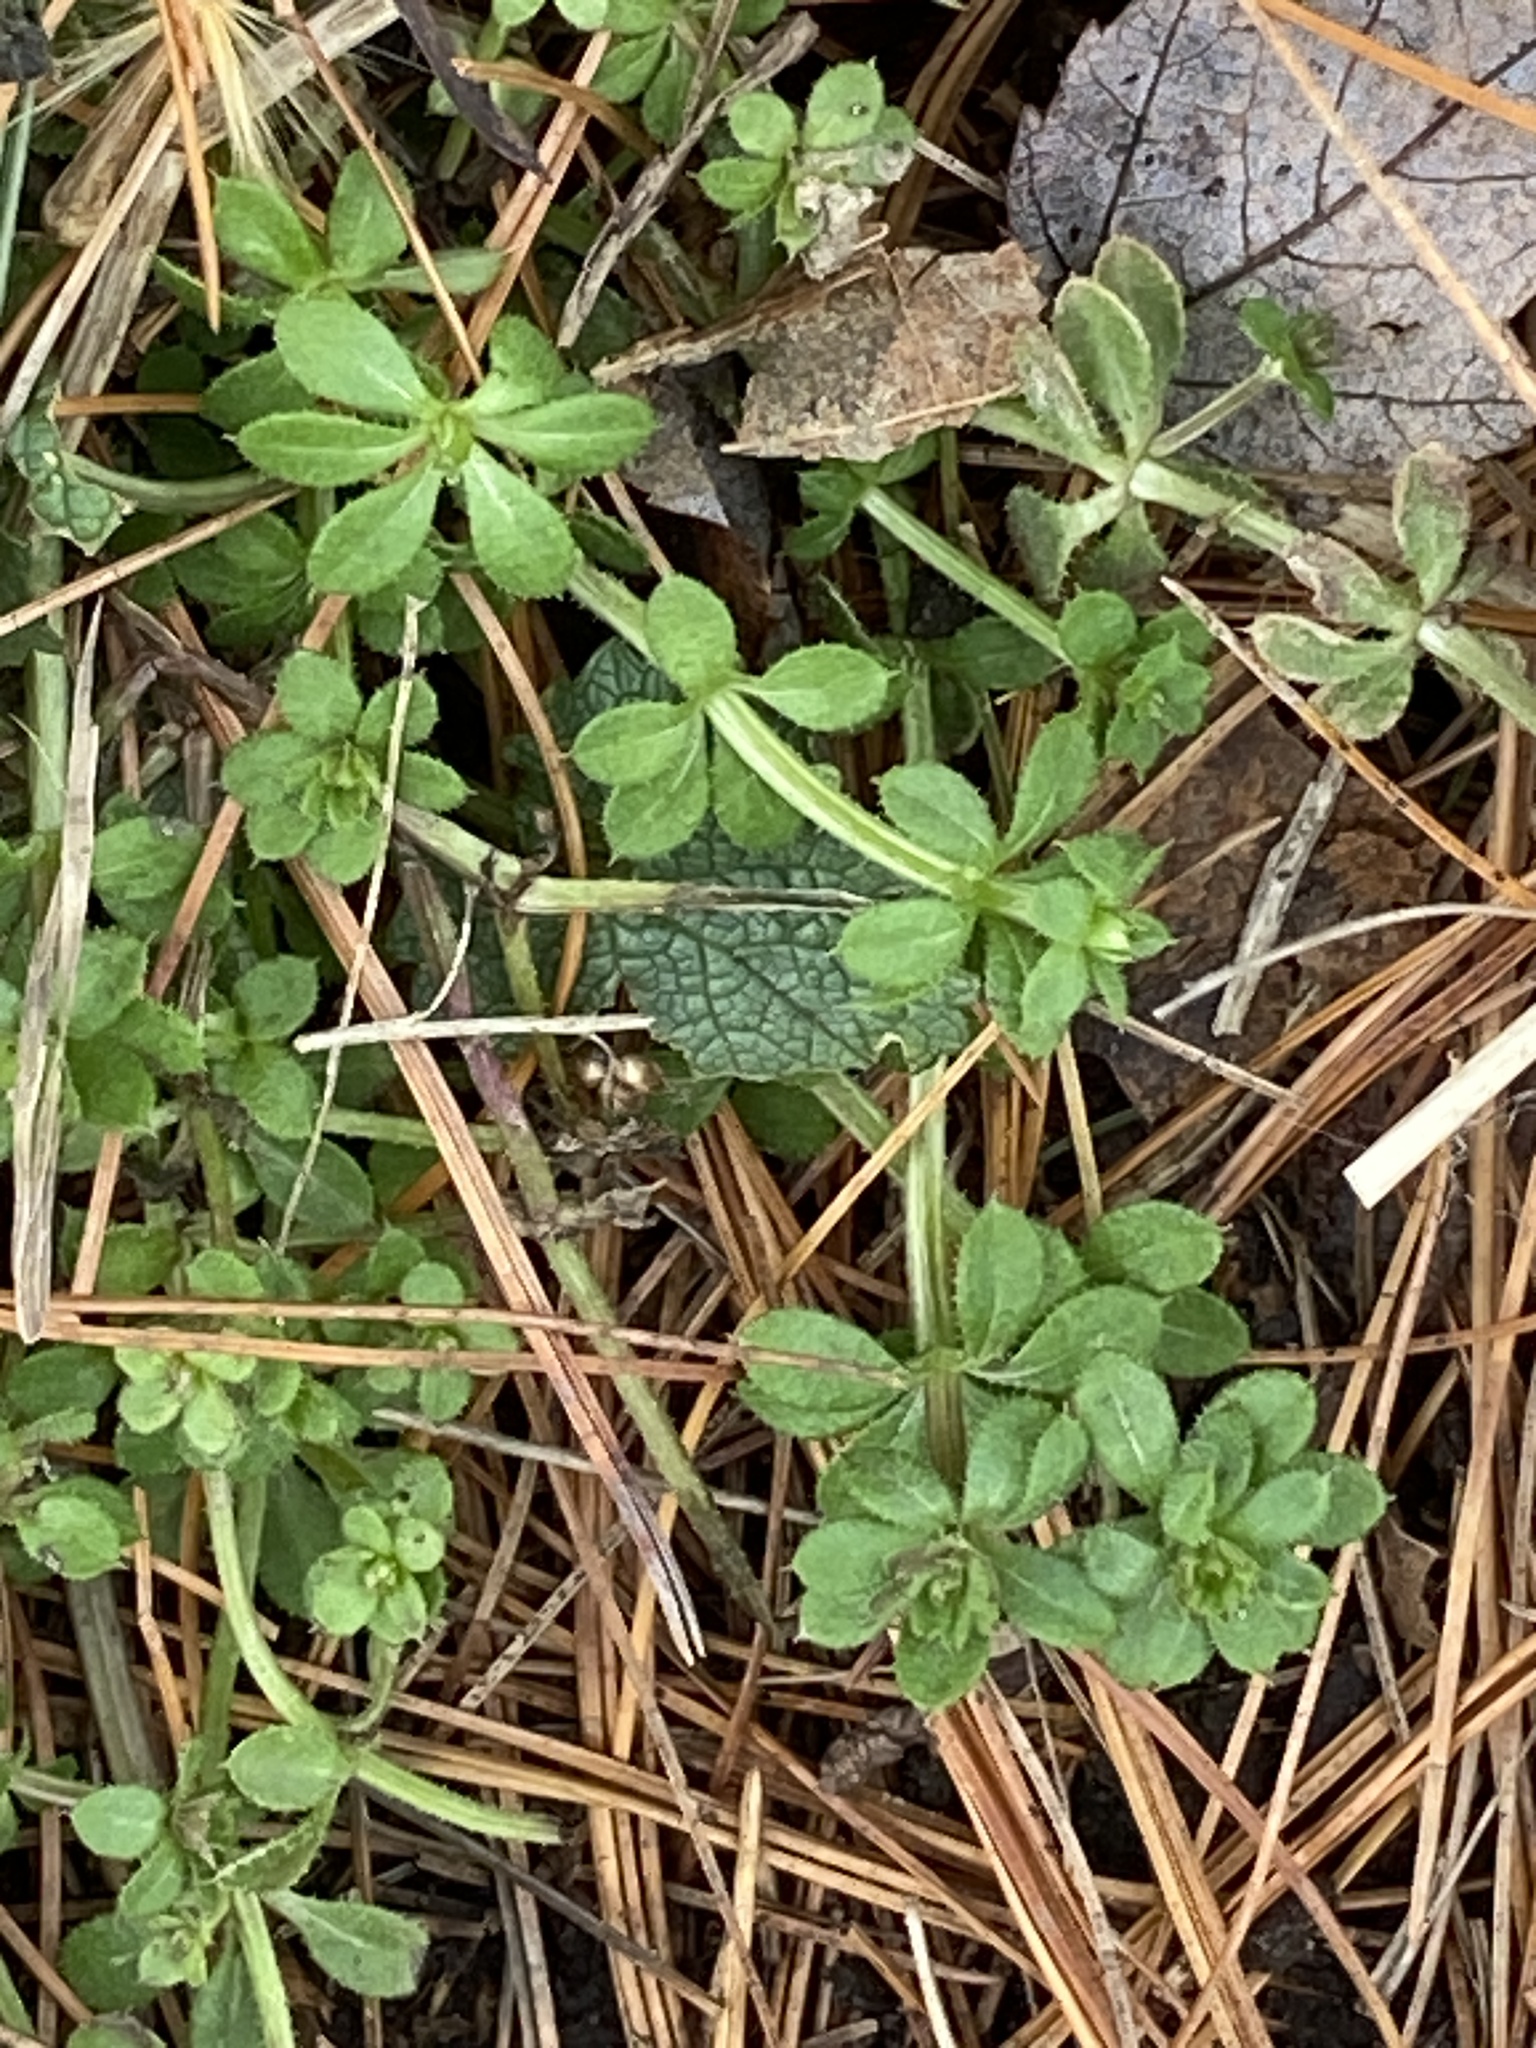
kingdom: Plantae
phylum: Tracheophyta
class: Magnoliopsida
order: Gentianales
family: Rubiaceae
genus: Galium
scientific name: Galium aparine
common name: Cleavers
